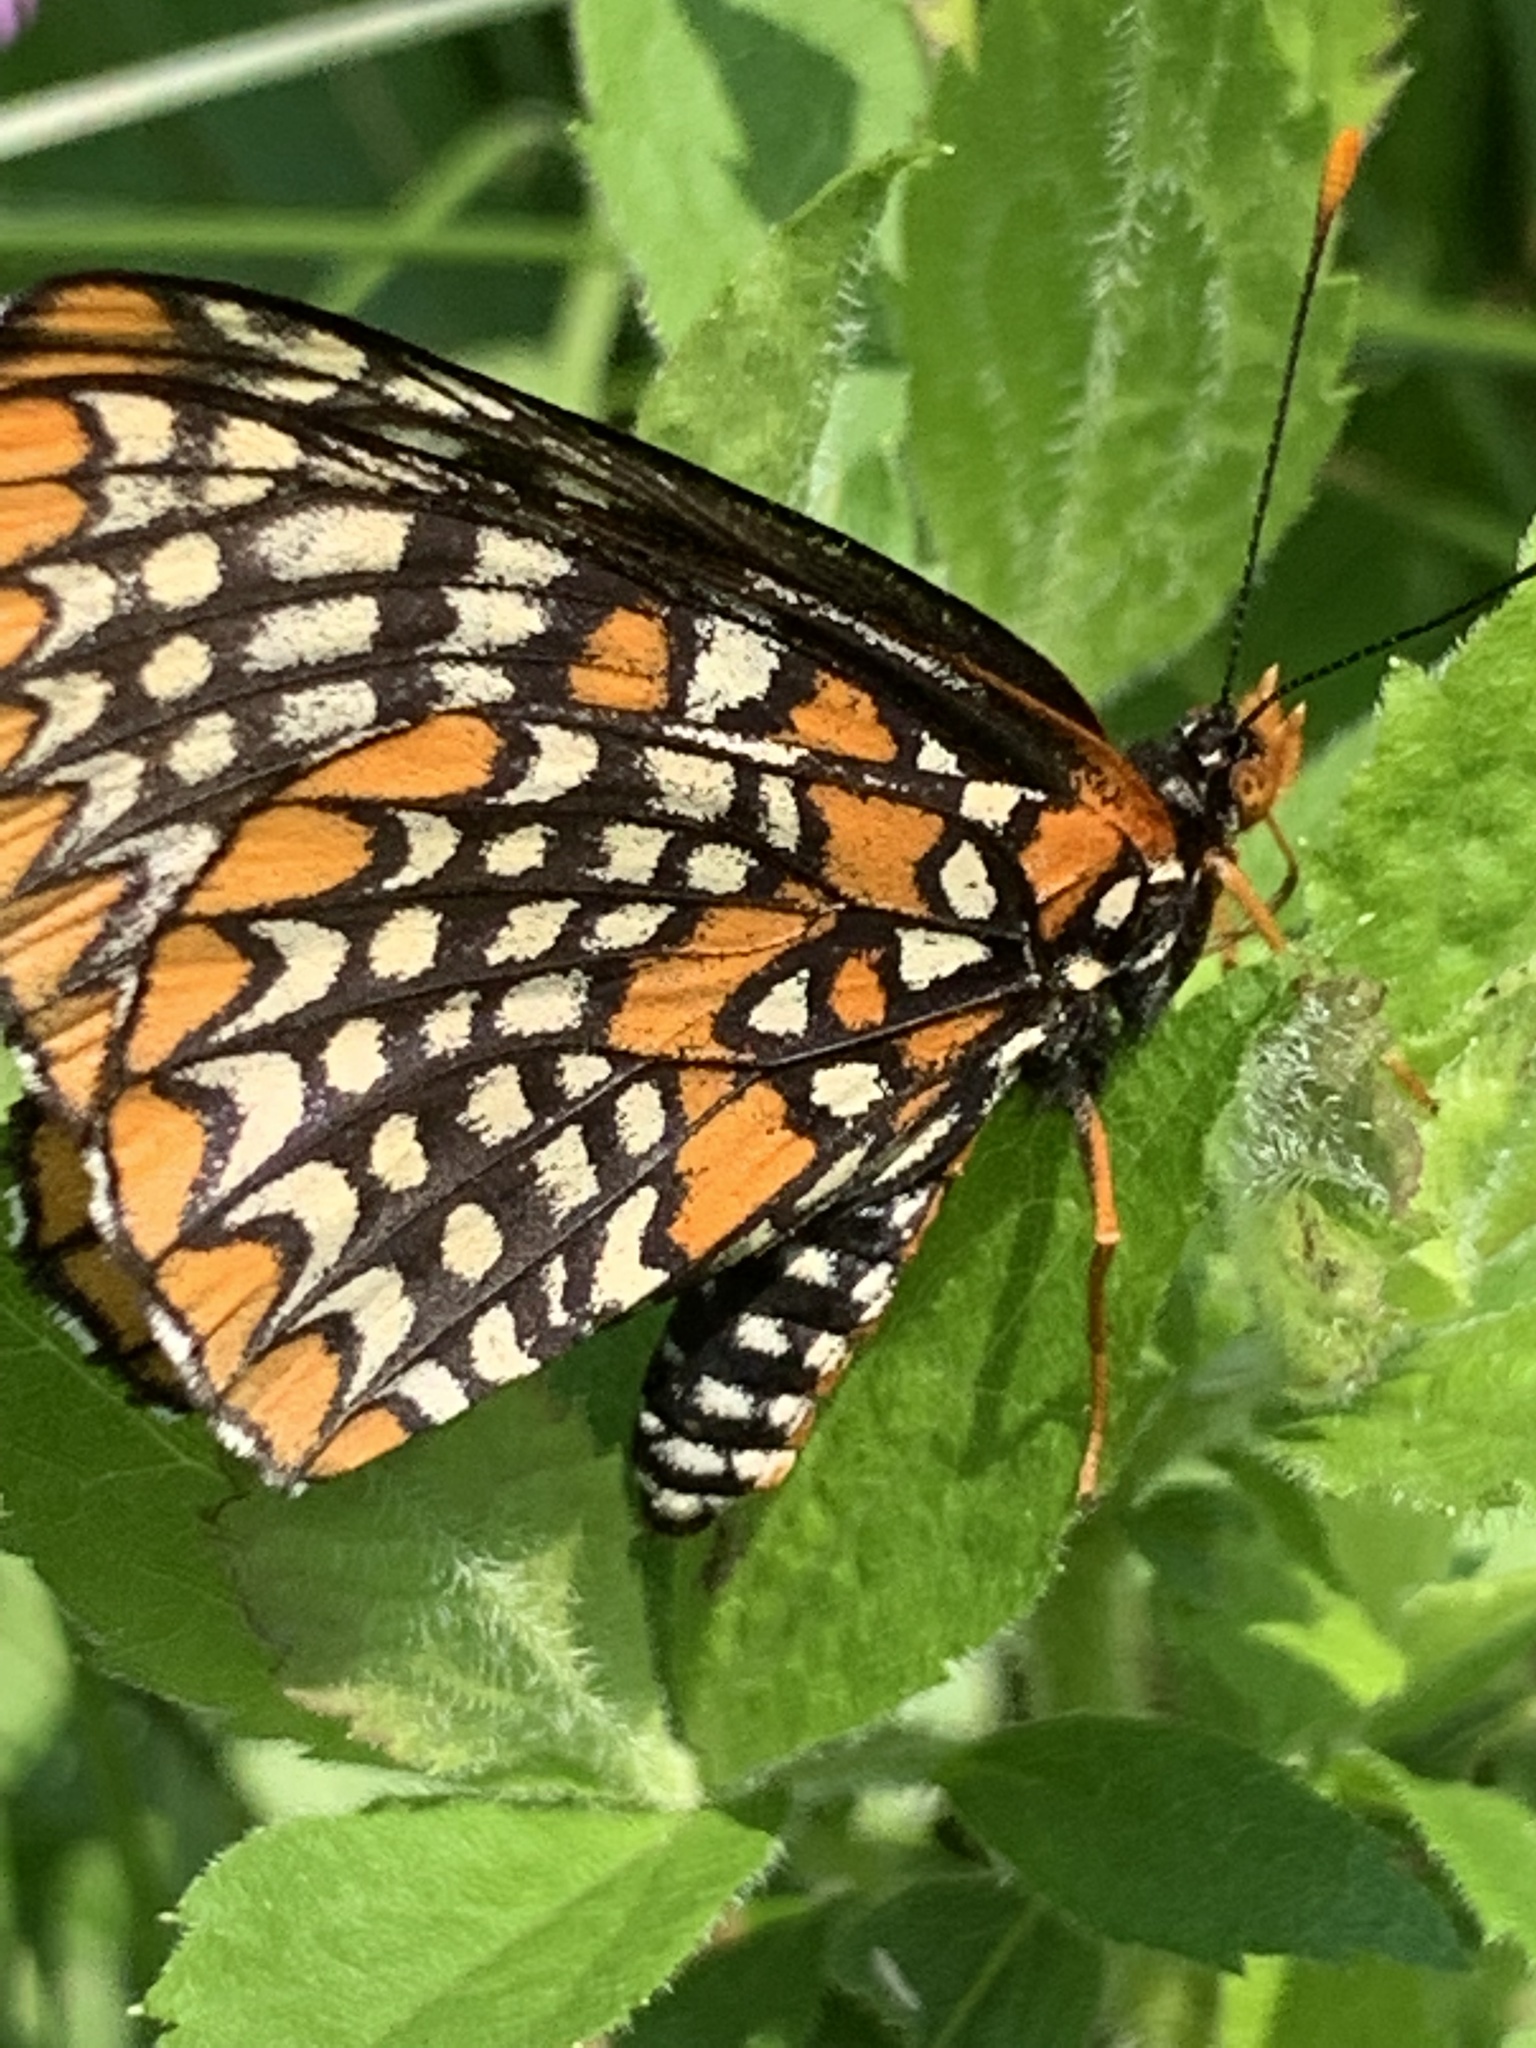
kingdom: Animalia
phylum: Arthropoda
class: Insecta
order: Lepidoptera
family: Nymphalidae
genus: Euphydryas
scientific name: Euphydryas phaeton
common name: Baltimore checkerspot
